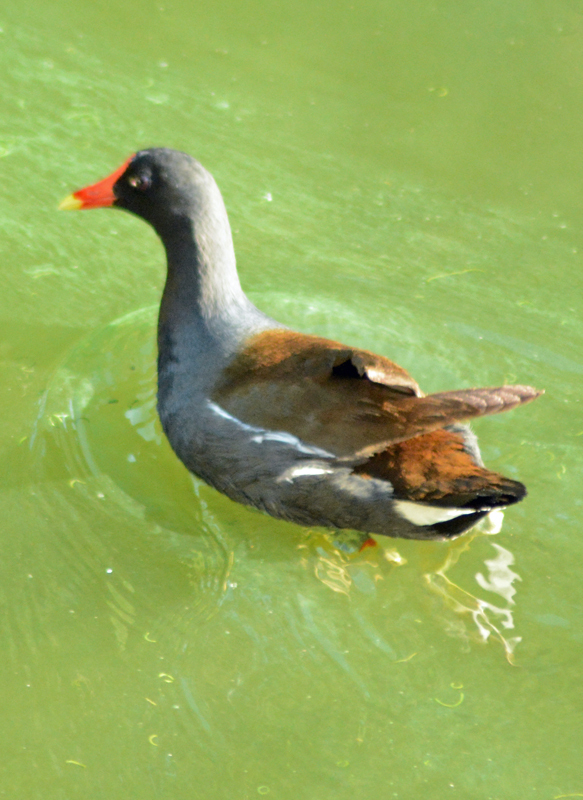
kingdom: Animalia
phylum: Chordata
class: Aves
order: Gruiformes
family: Rallidae
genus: Gallinula
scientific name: Gallinula chloropus
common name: Common moorhen
